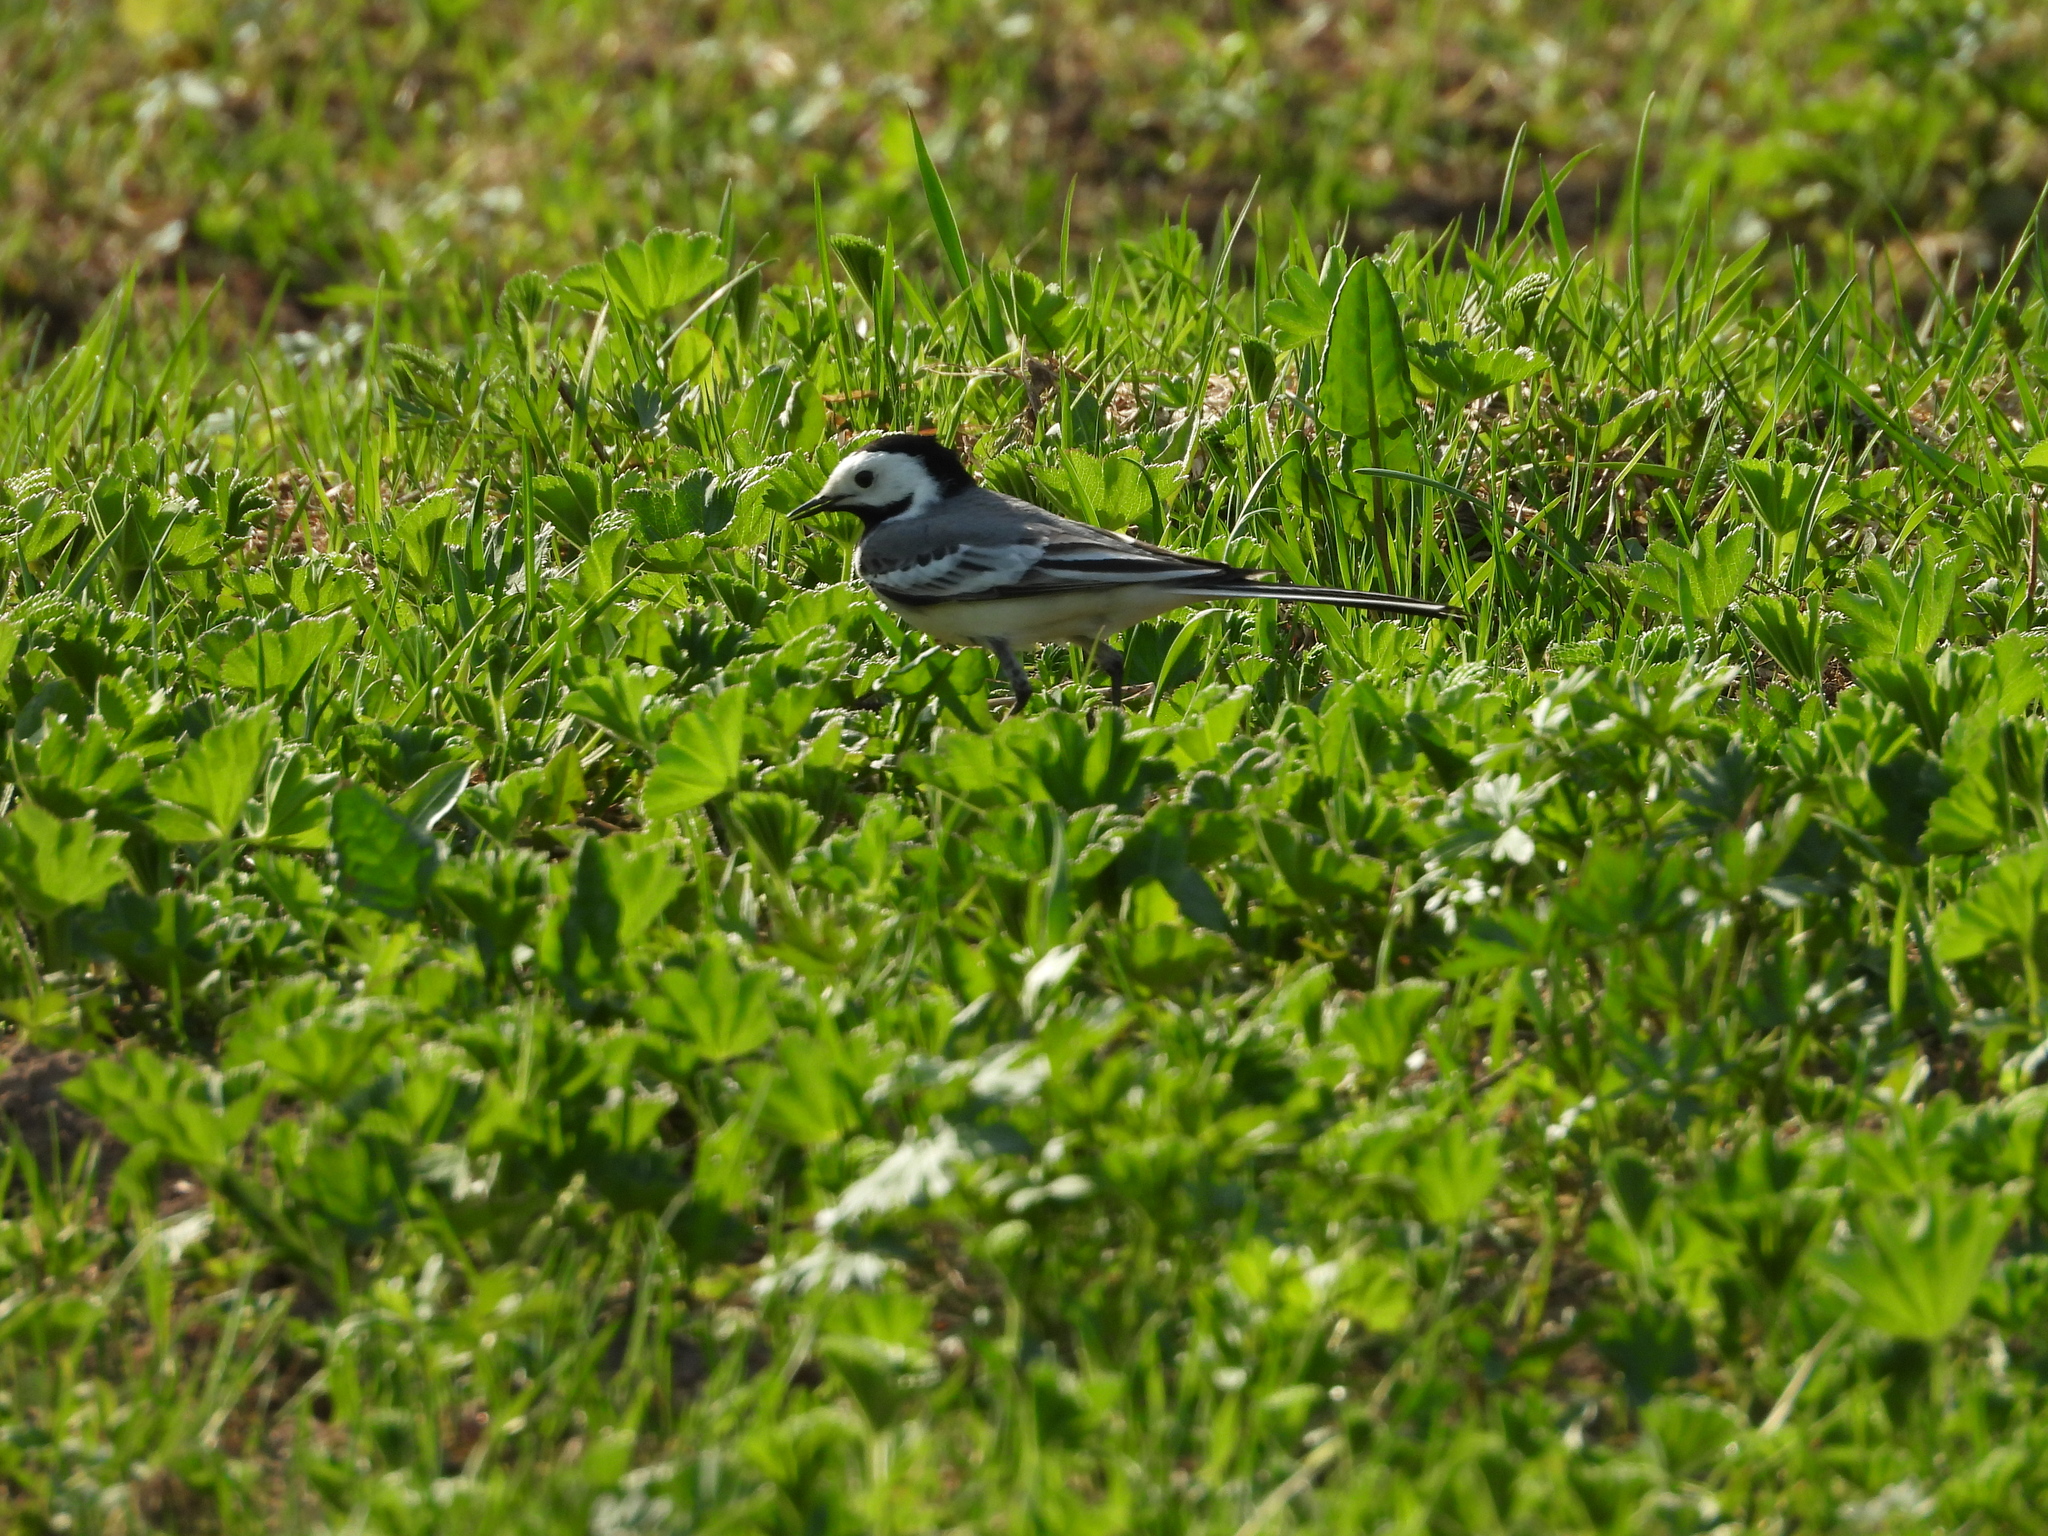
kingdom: Animalia
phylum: Chordata
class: Aves
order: Passeriformes
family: Motacillidae
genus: Motacilla
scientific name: Motacilla alba
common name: White wagtail
